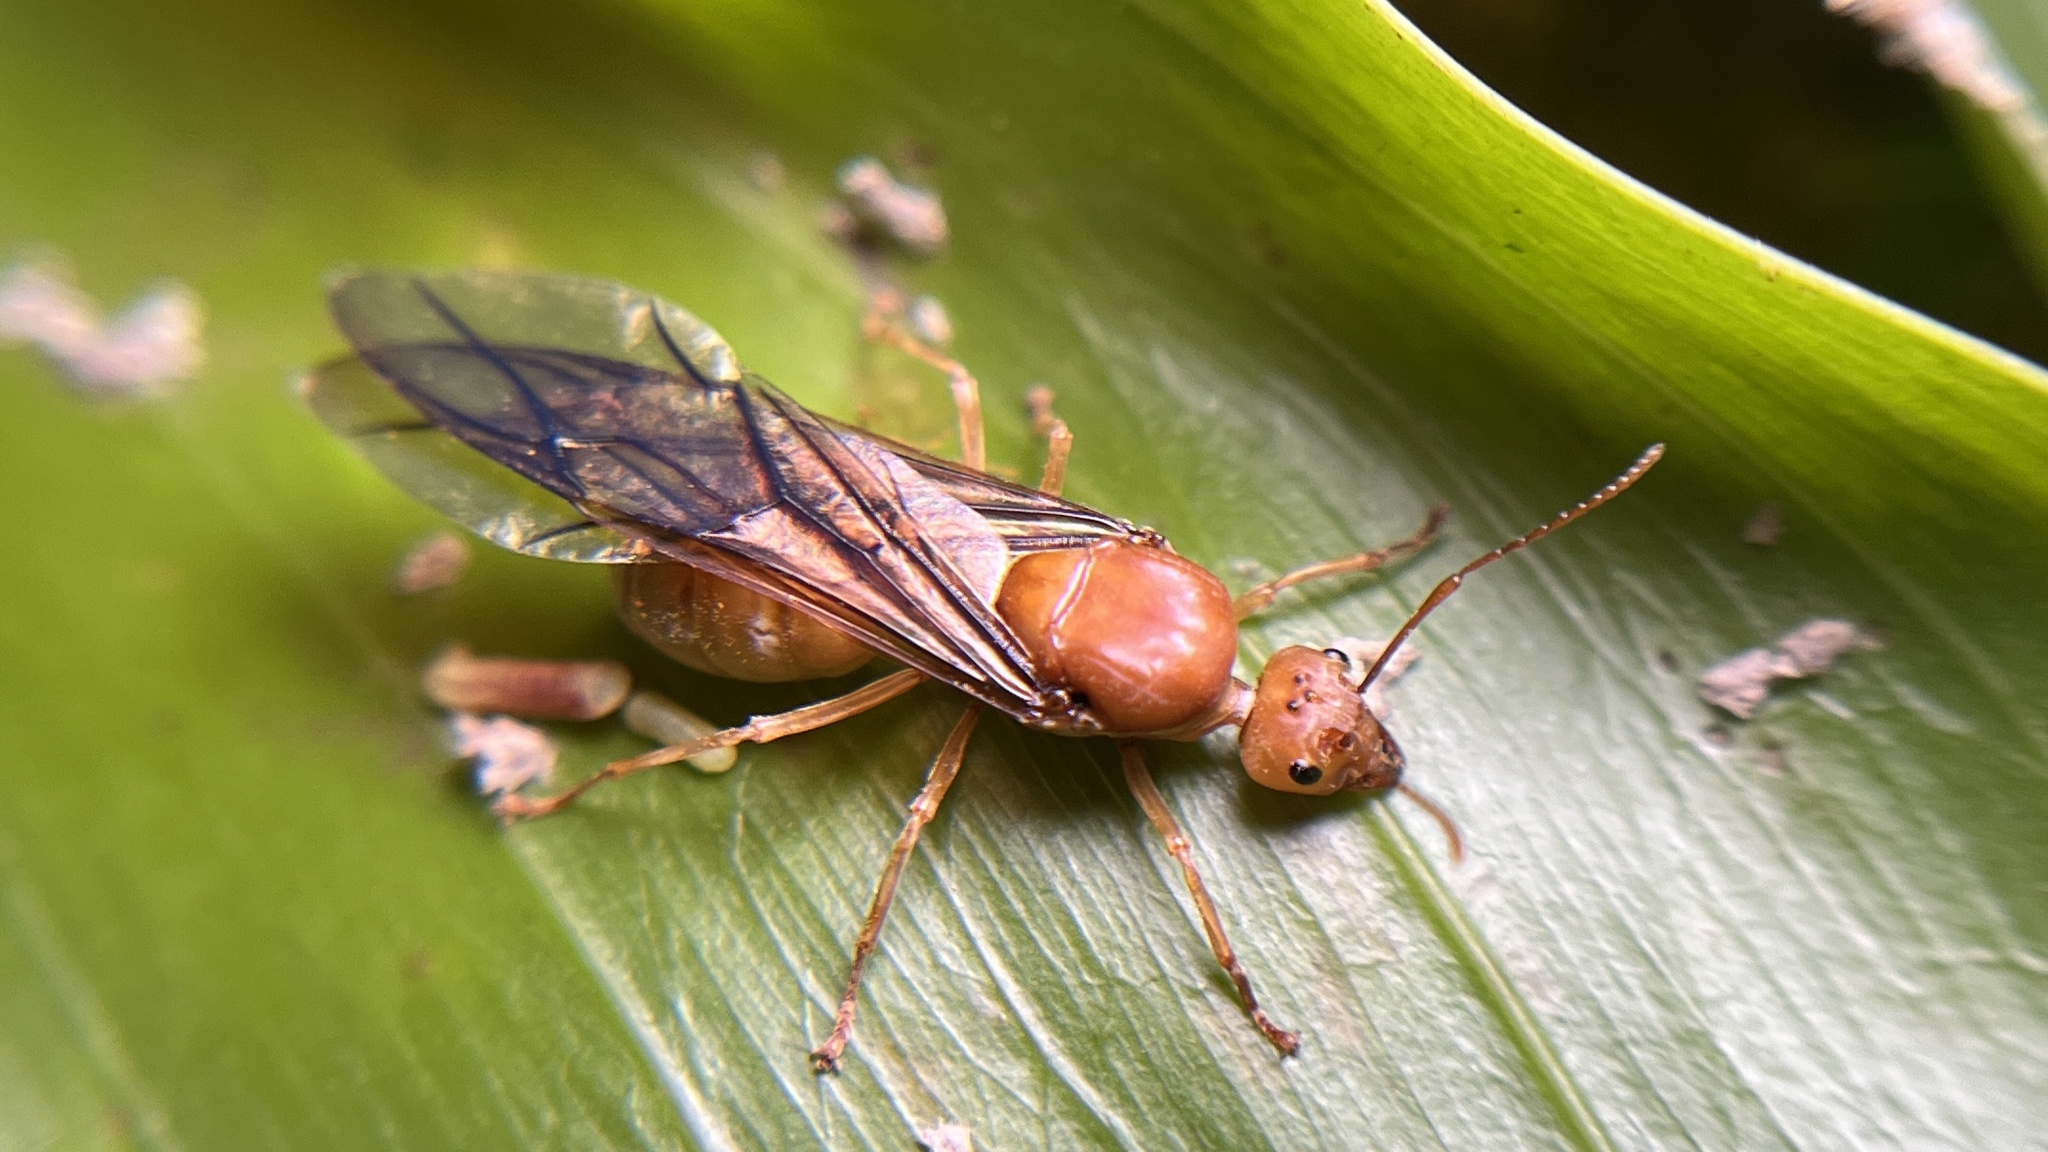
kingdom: Animalia
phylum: Arthropoda
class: Insecta
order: Hymenoptera
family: Formicidae
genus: Oecophylla
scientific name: Oecophylla smaragdina
